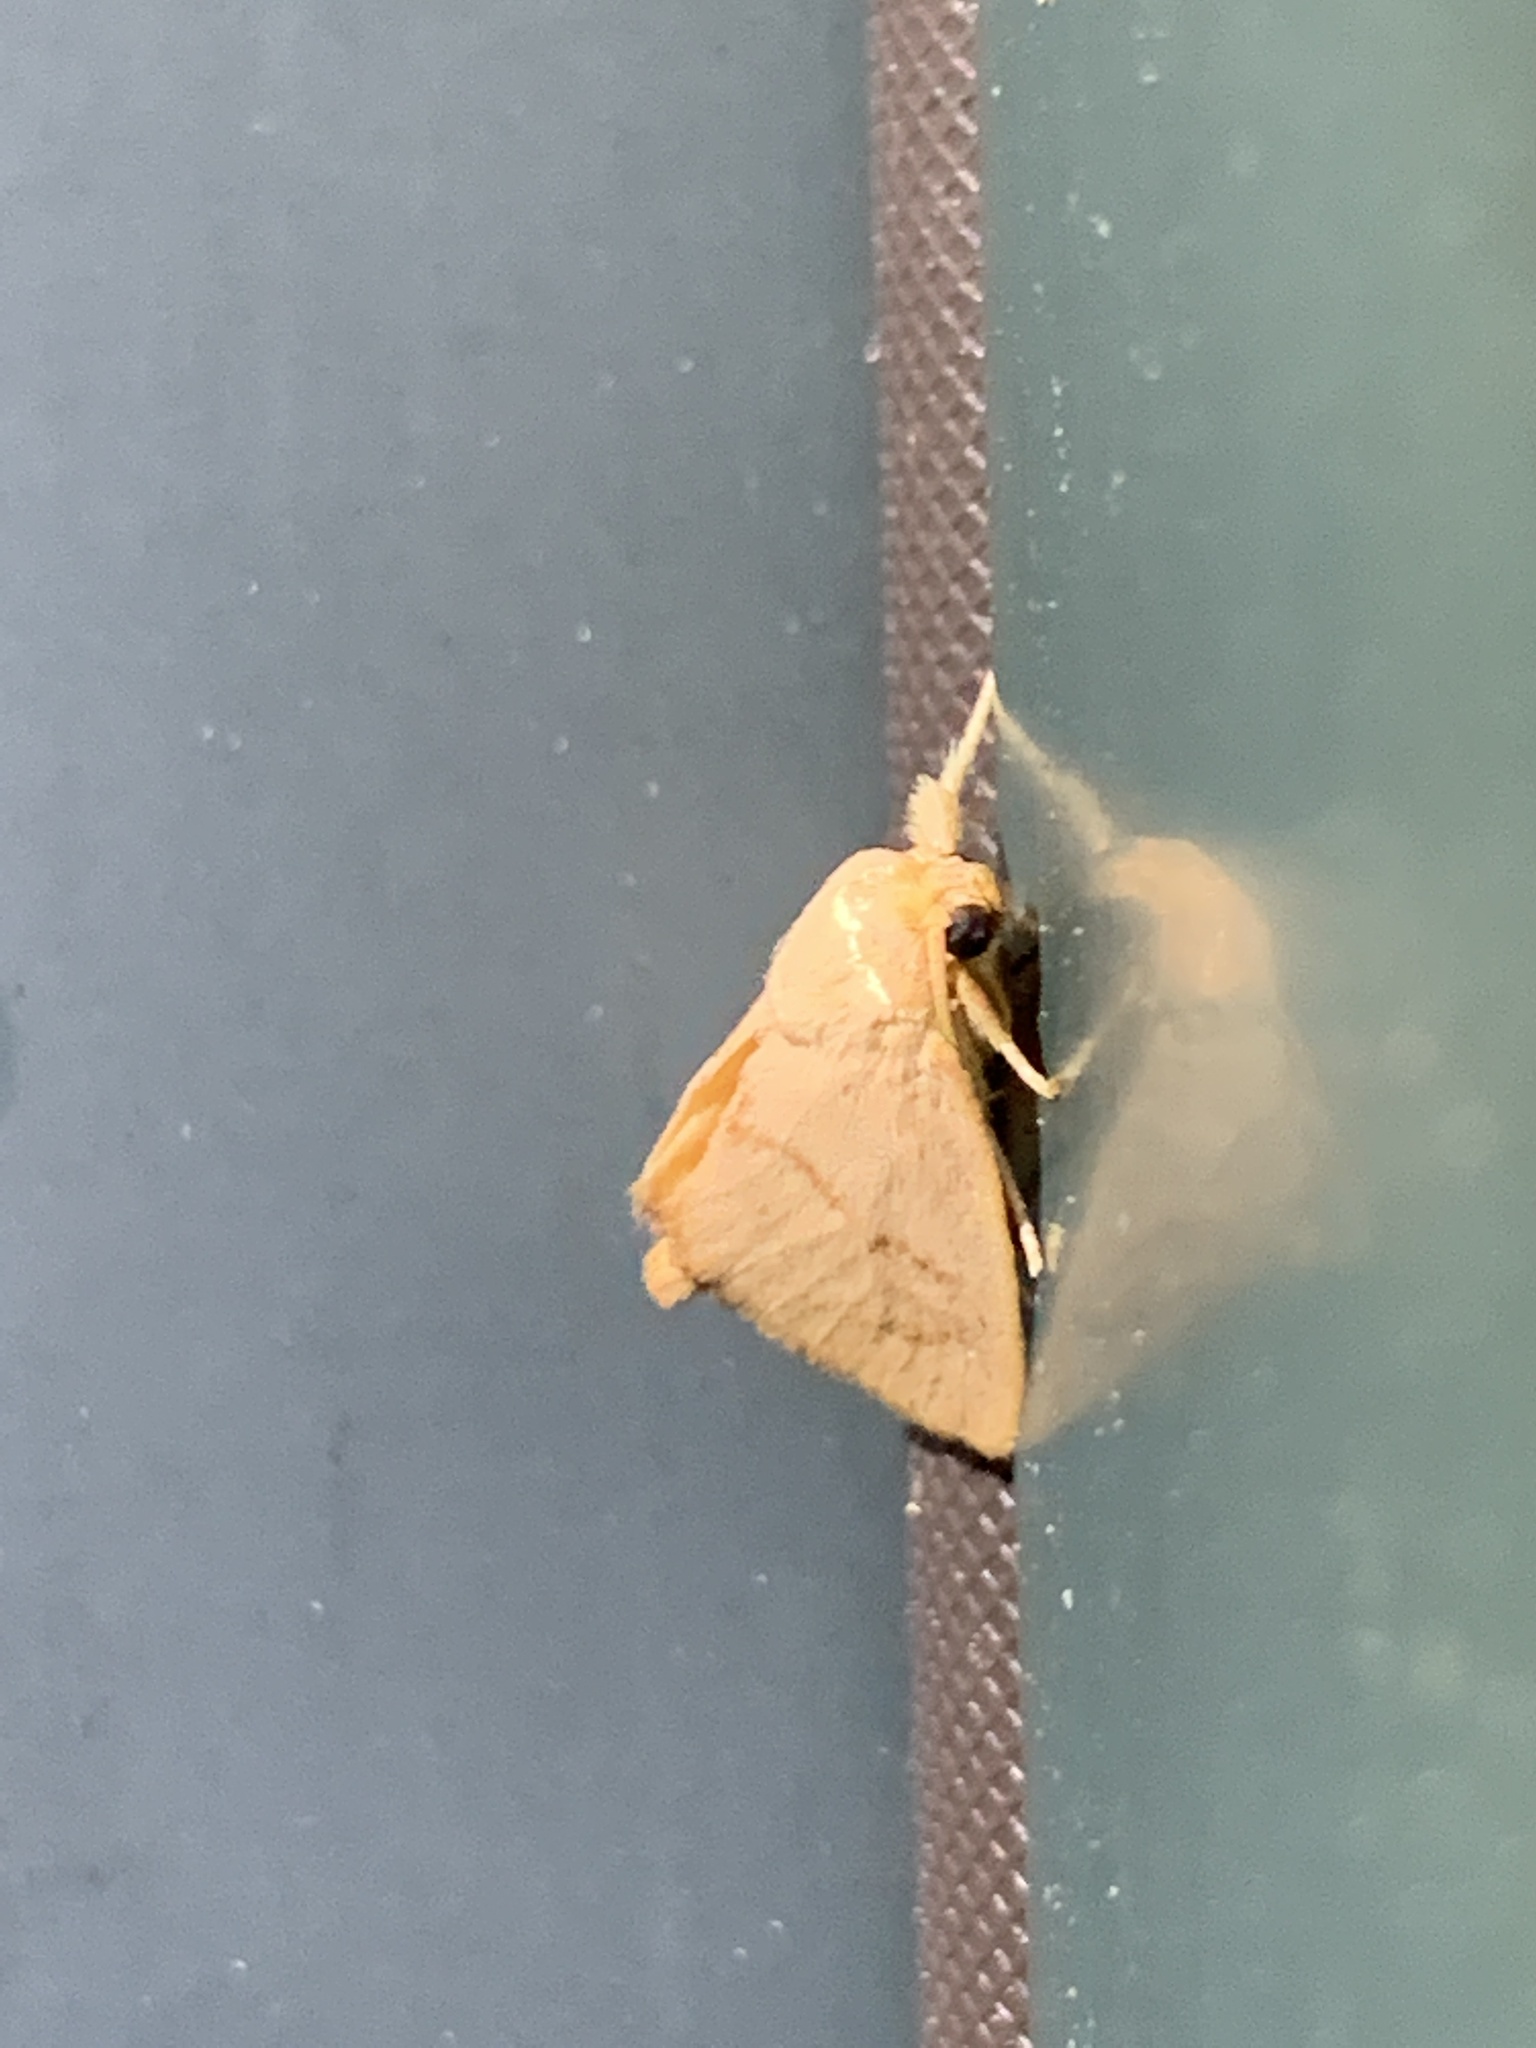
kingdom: Animalia
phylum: Arthropoda
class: Insecta
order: Lepidoptera
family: Limacodidae
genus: Tortricidia
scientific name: Tortricidia pallida
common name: Red-crossed button slug moth
